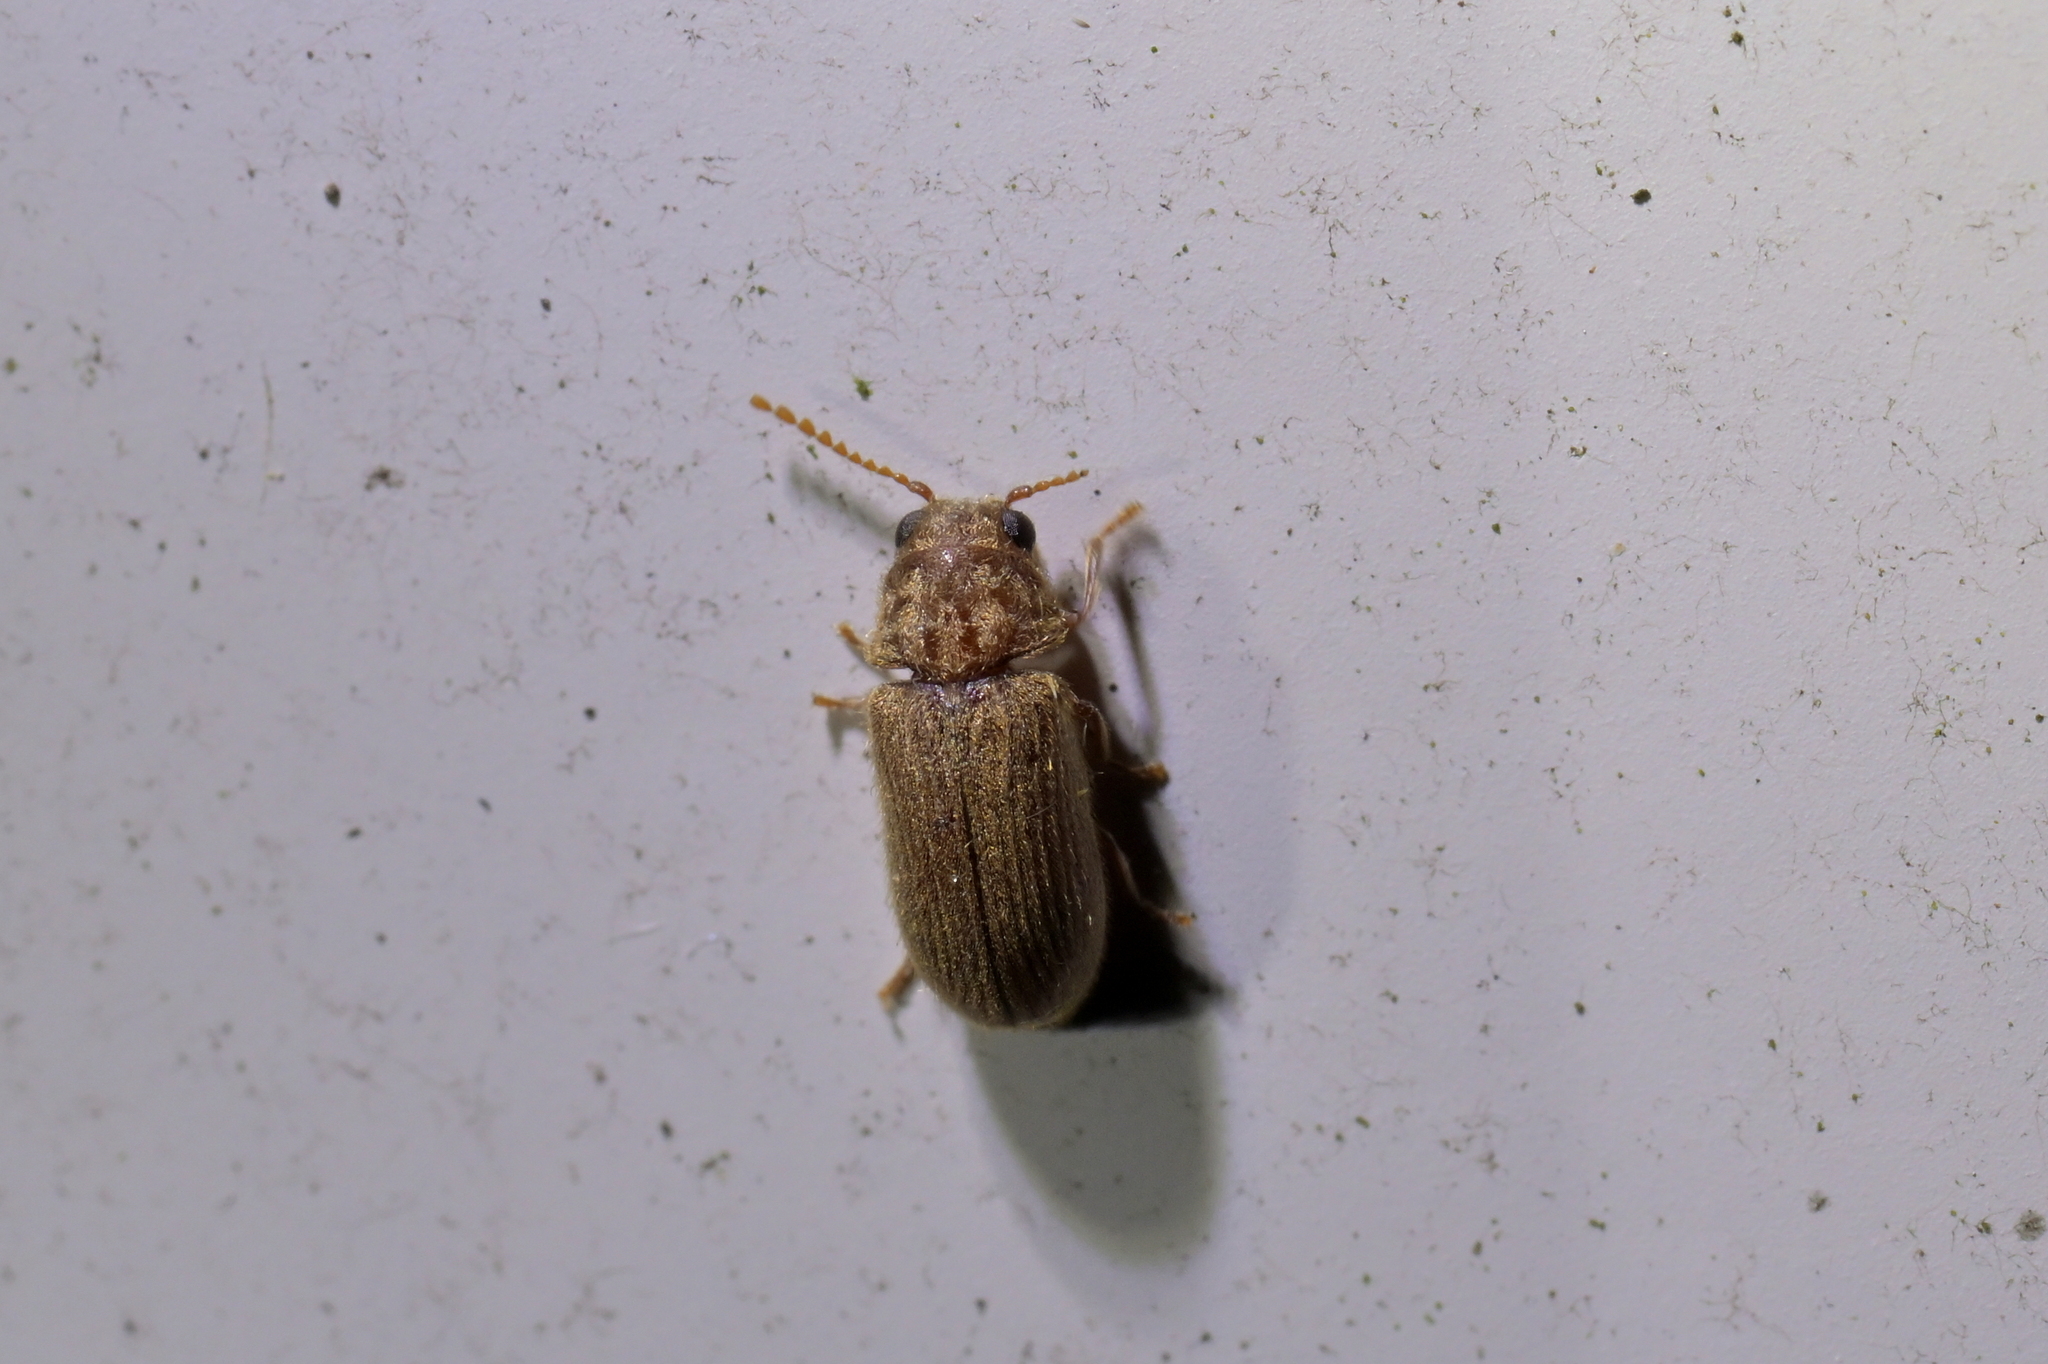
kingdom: Animalia
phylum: Arthropoda
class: Insecta
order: Coleoptera
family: Anobiidae
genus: Xyletobius
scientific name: Xyletobius
